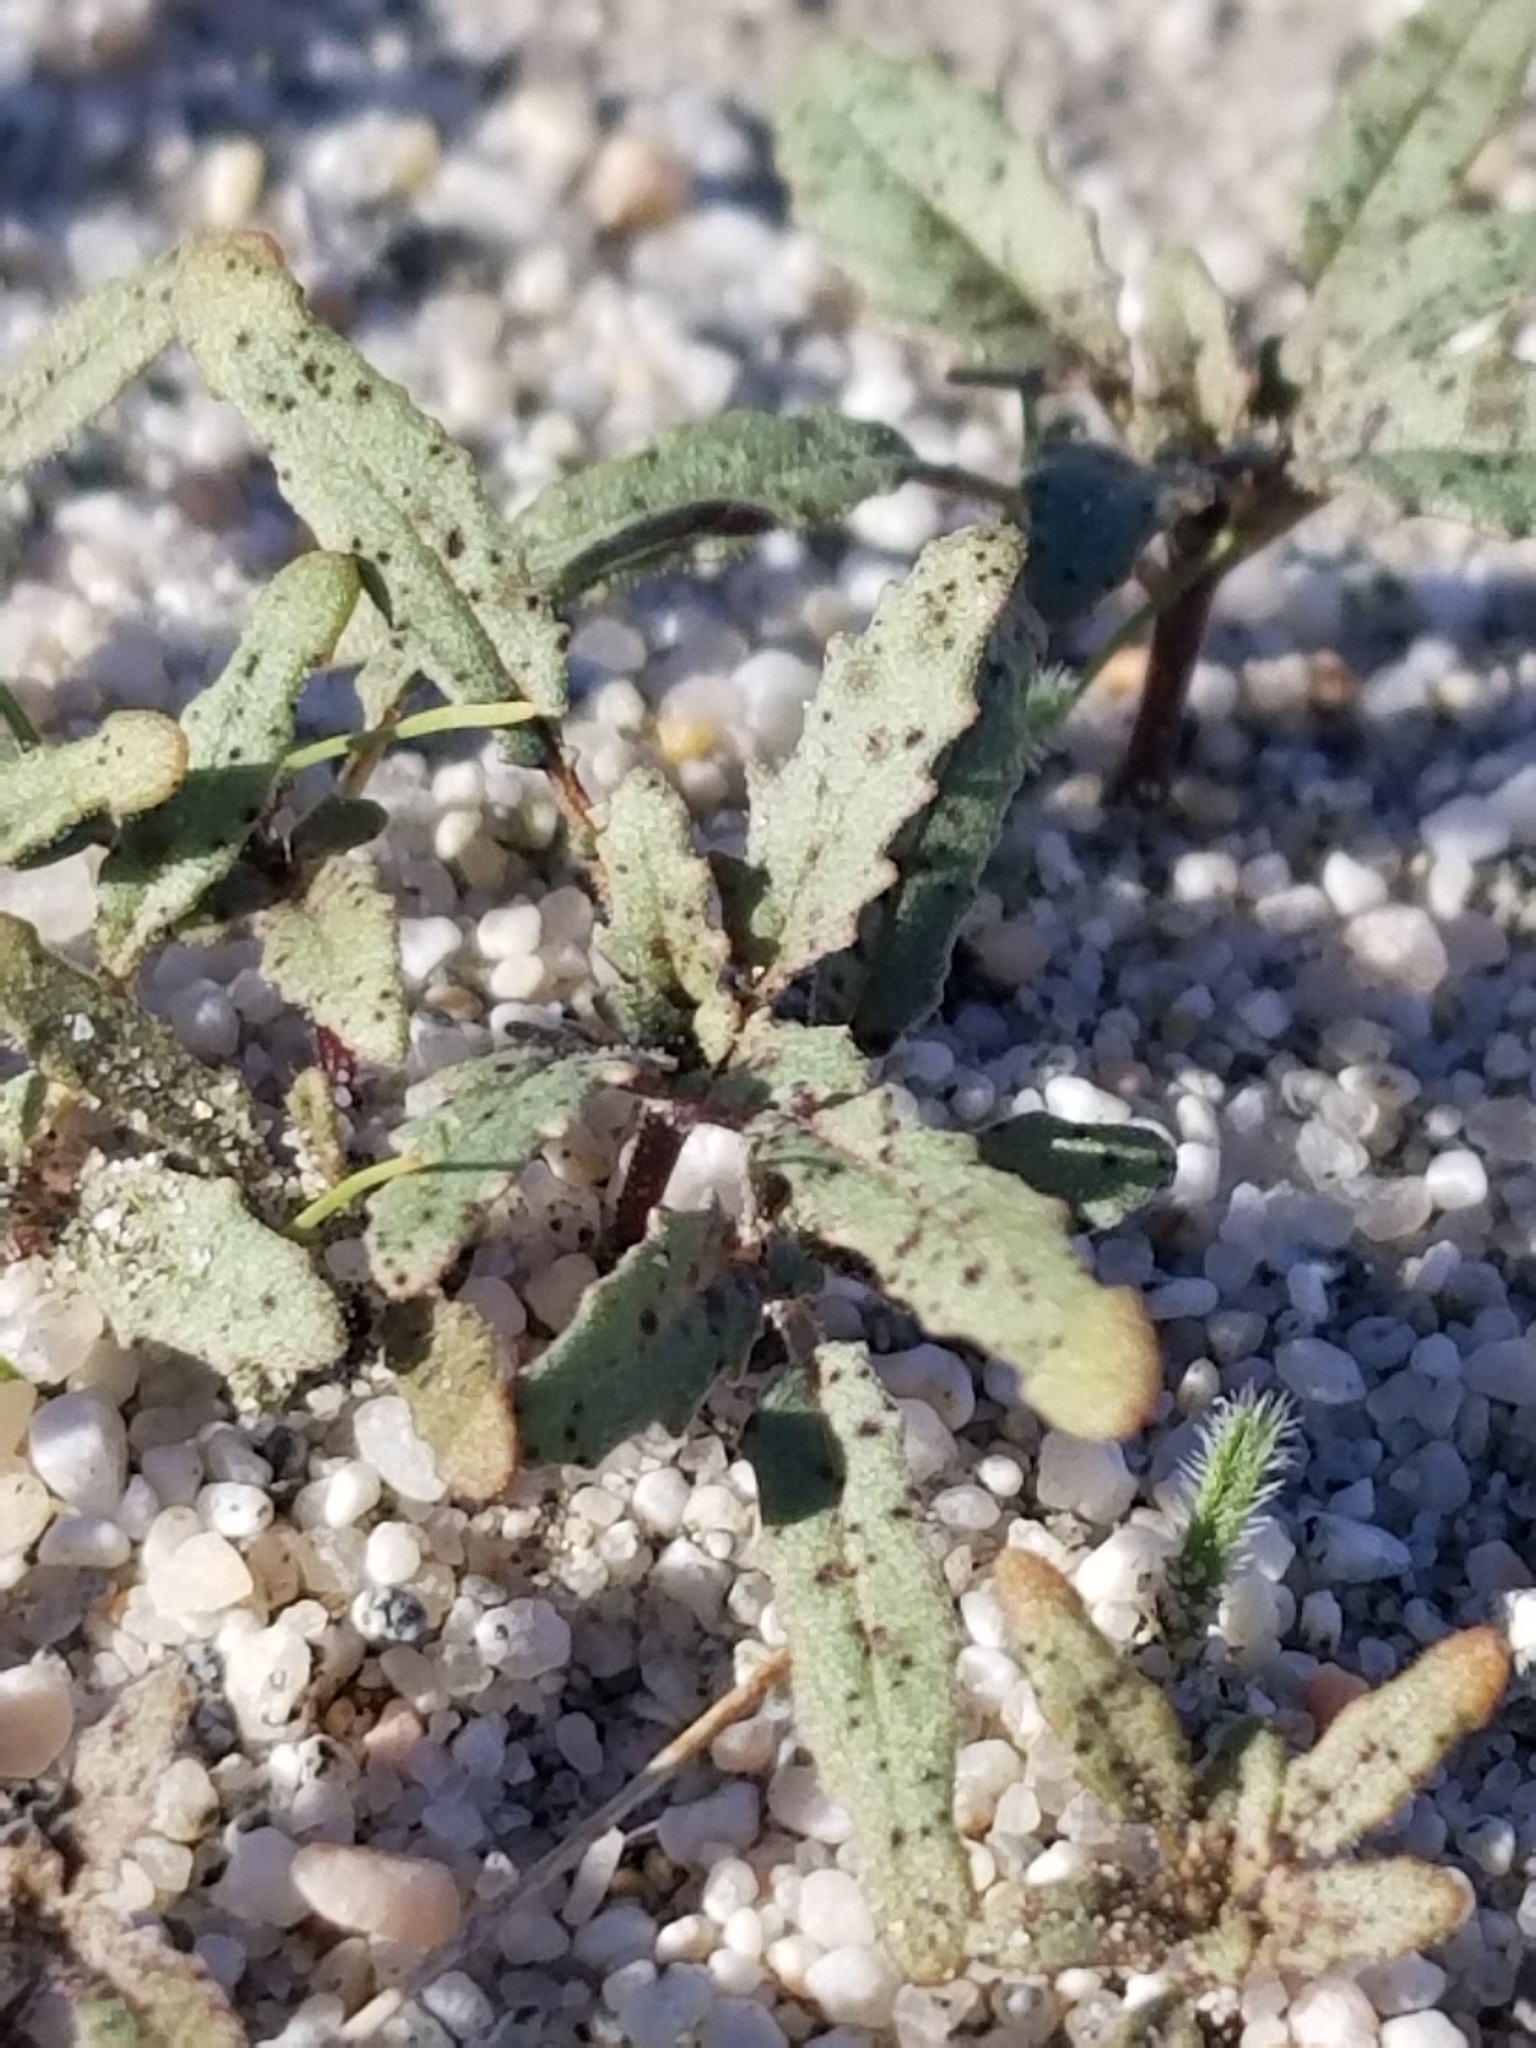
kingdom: Plantae
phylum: Tracheophyta
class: Magnoliopsida
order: Myrtales
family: Onagraceae
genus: Chylismia
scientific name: Chylismia claviformis
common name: Browneyes
